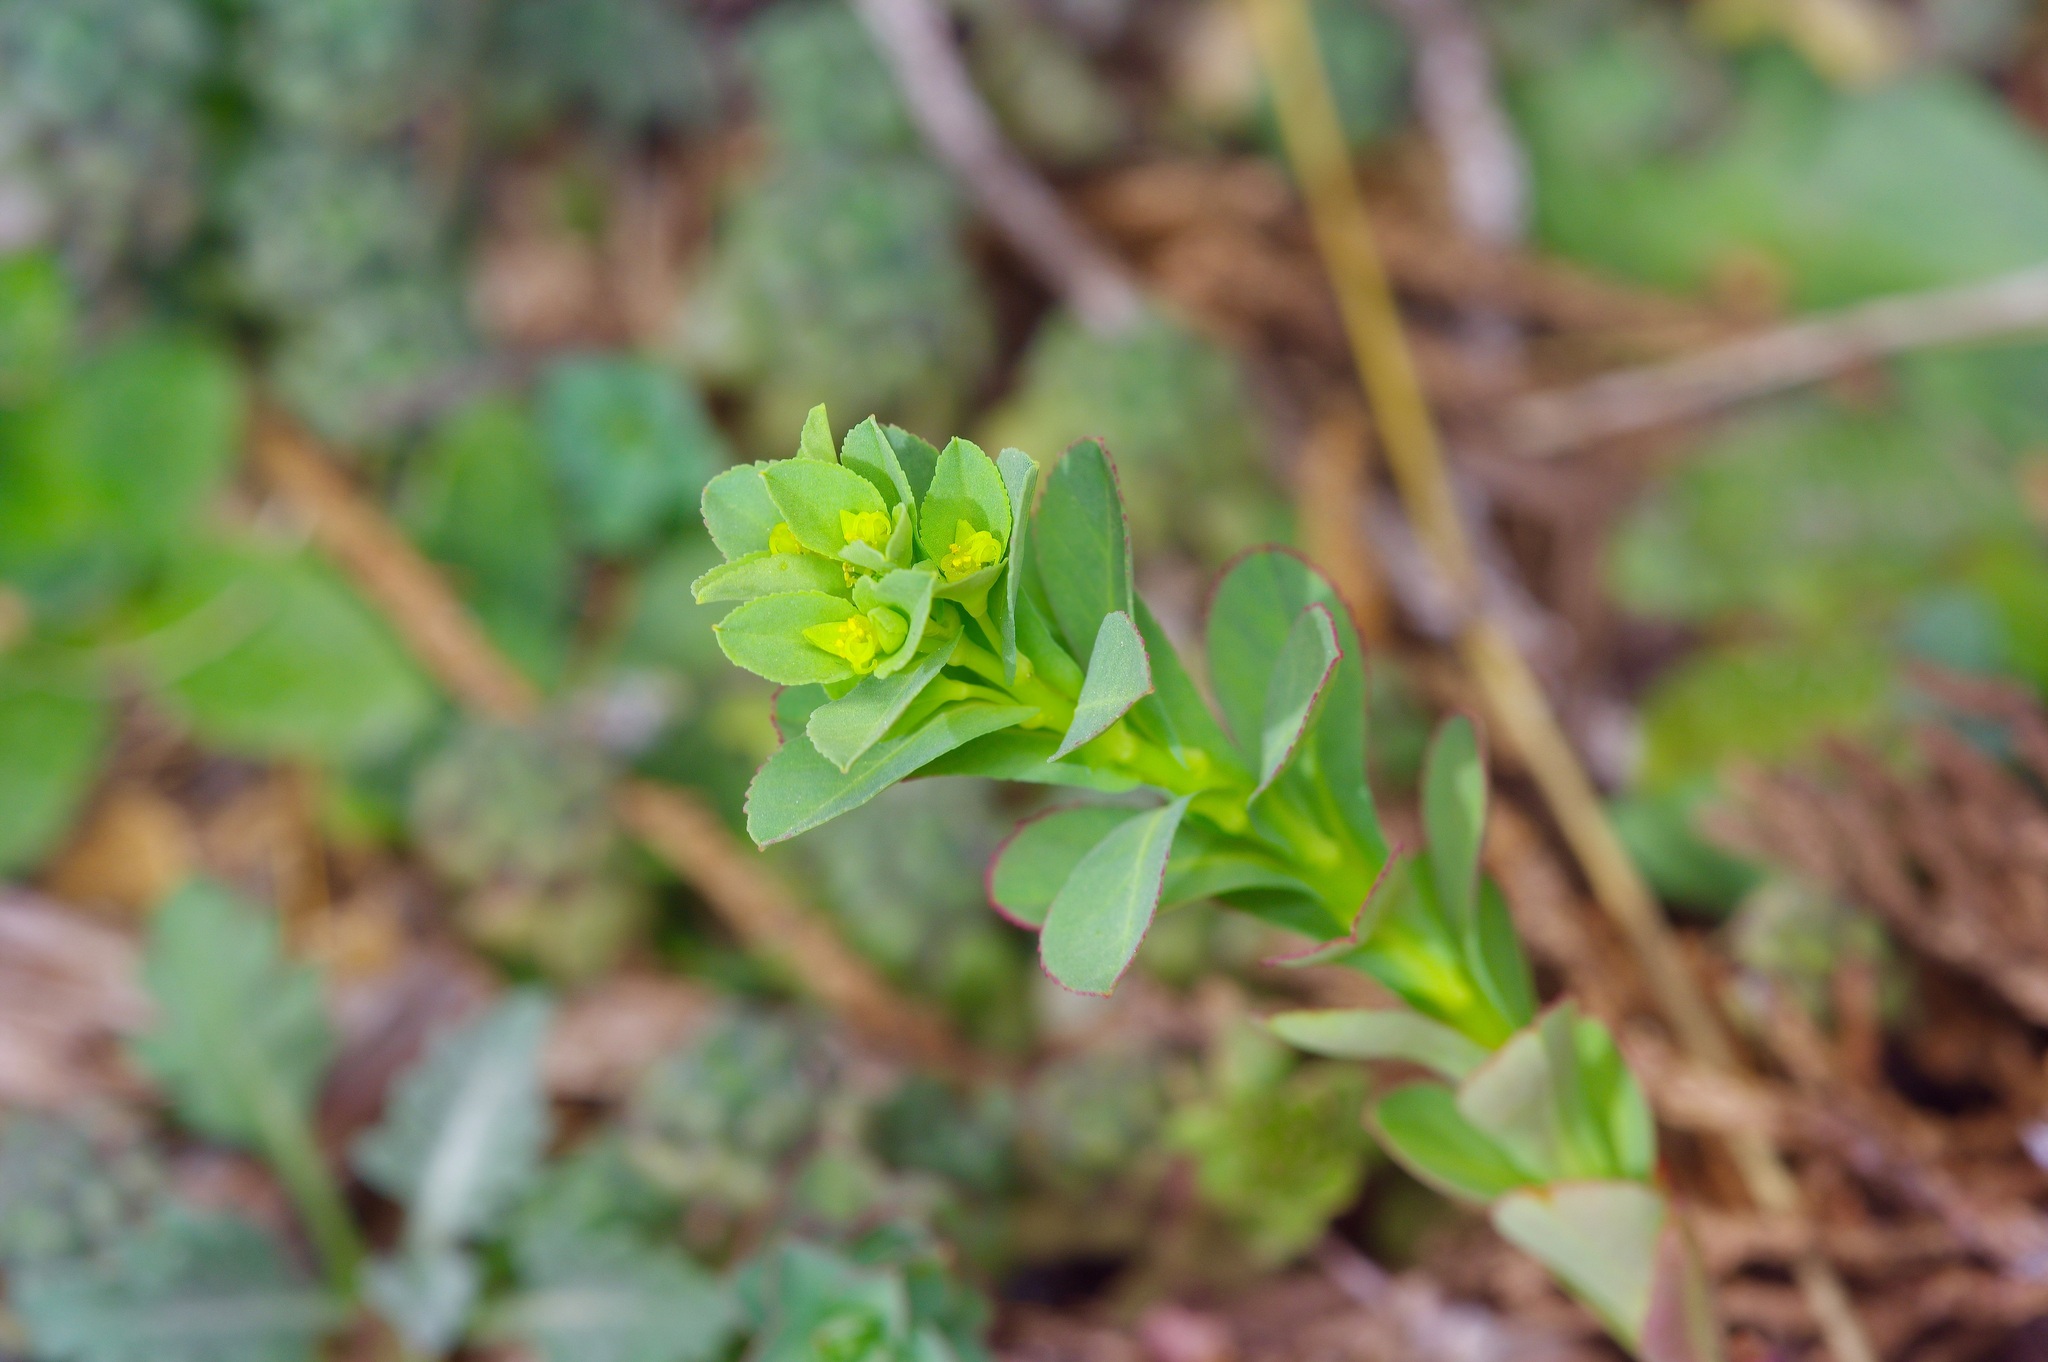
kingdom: Plantae
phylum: Tracheophyta
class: Magnoliopsida
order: Malpighiales
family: Euphorbiaceae
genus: Euphorbia
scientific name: Euphorbia spathulata
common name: Blunt spurge
